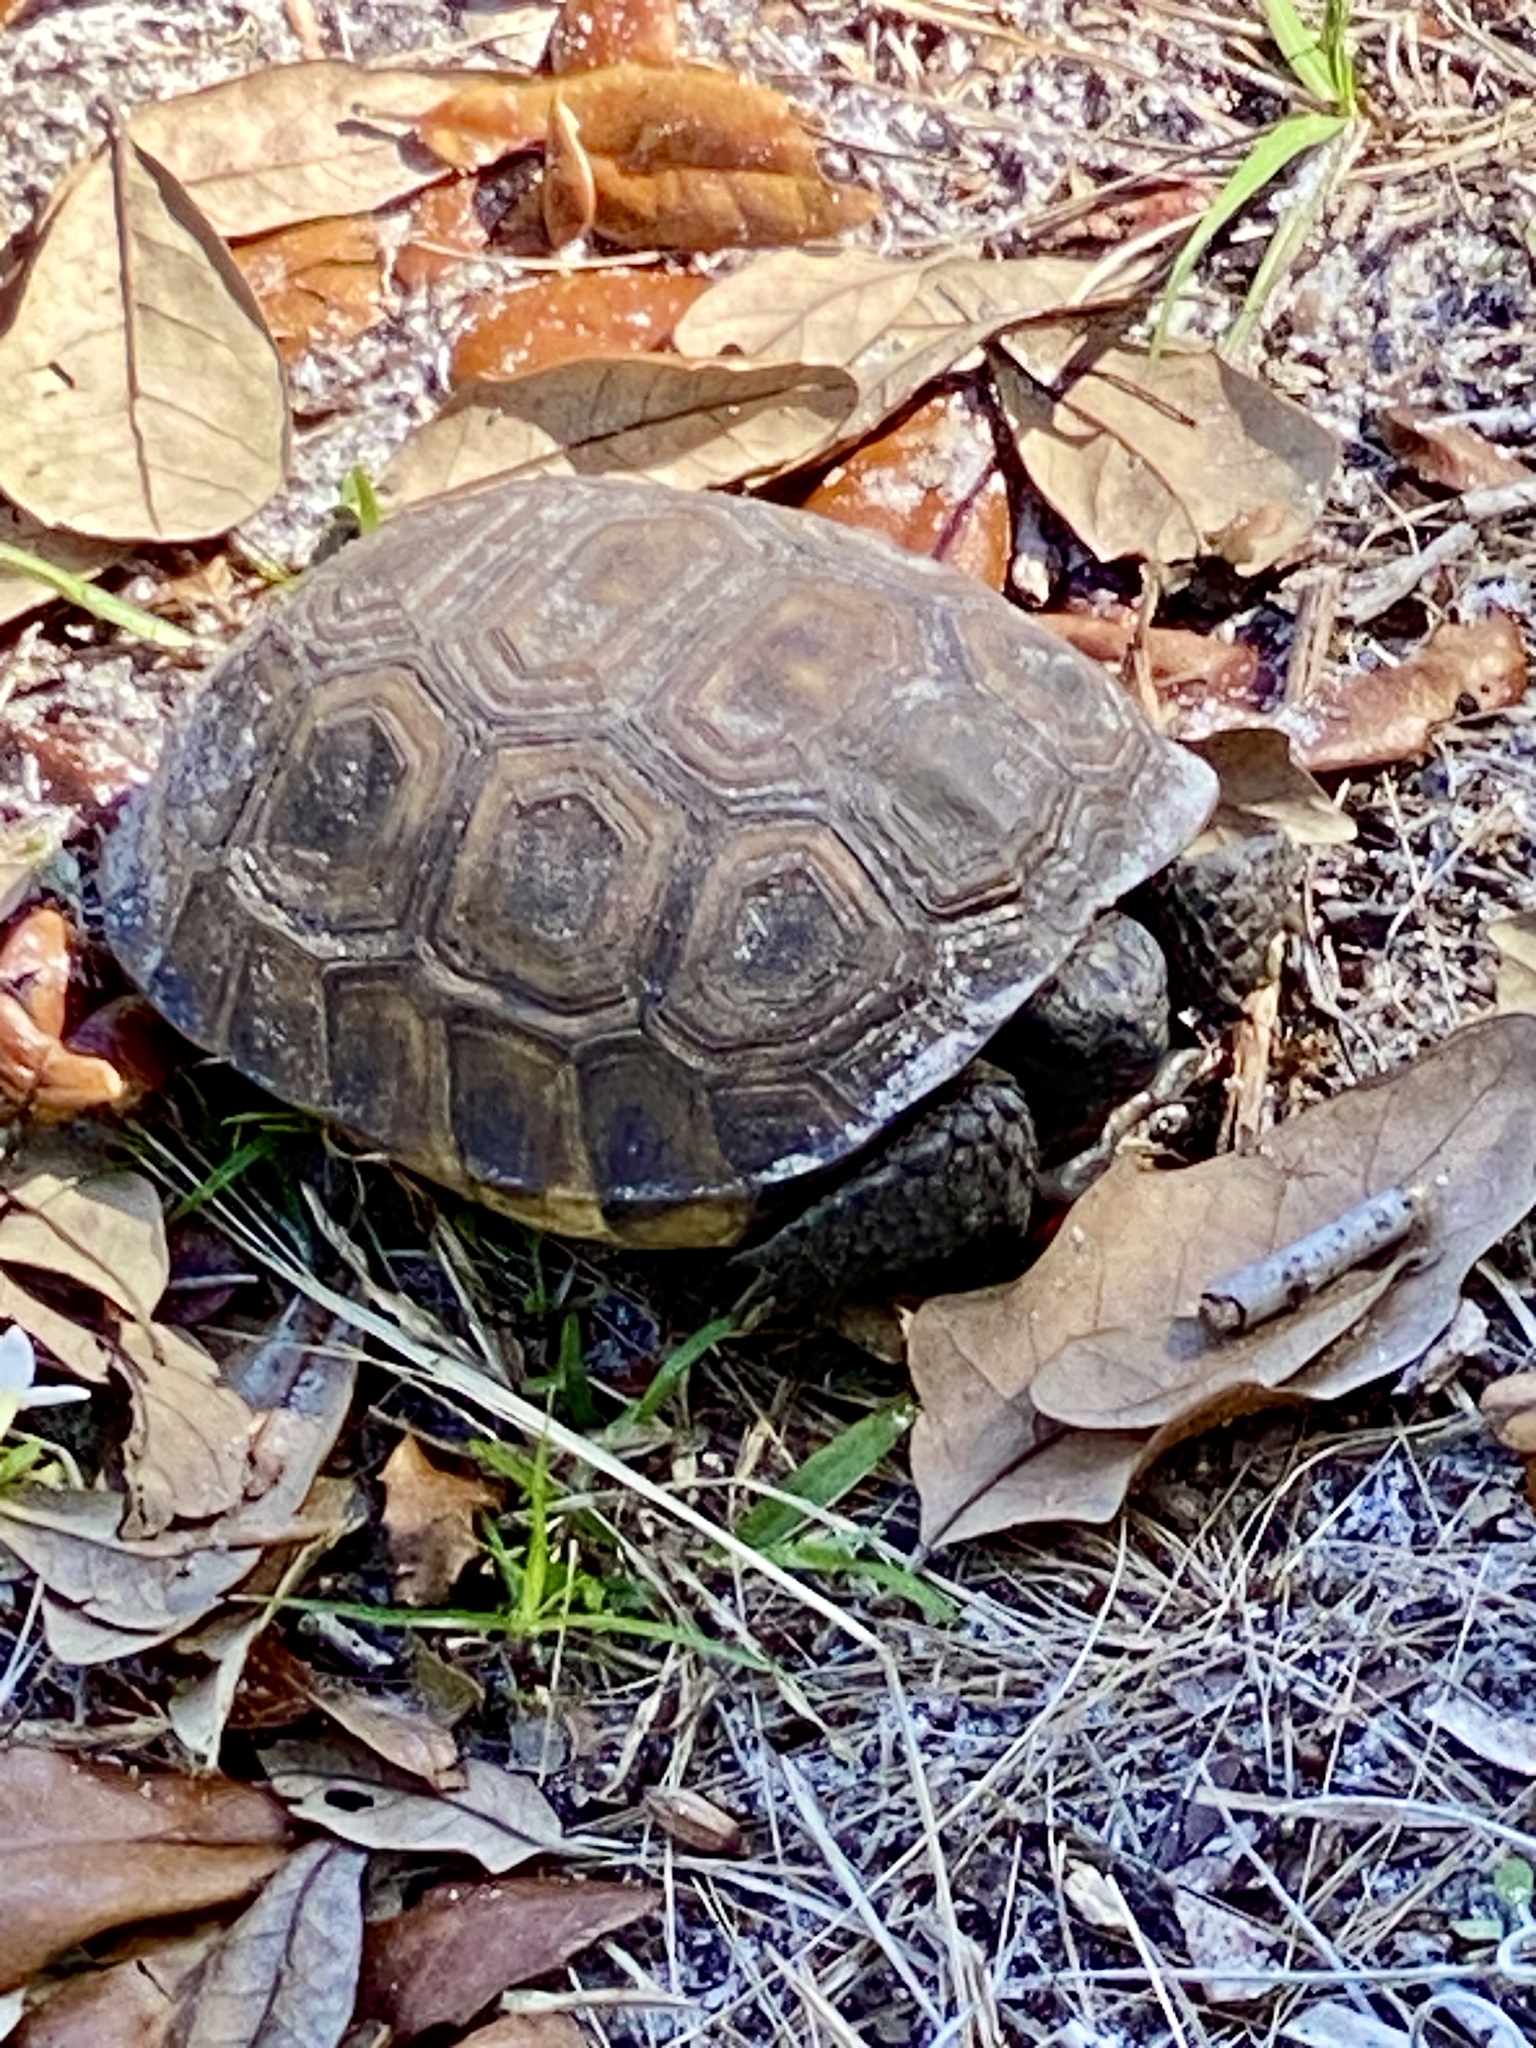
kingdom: Animalia
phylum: Chordata
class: Testudines
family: Testudinidae
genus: Gopherus
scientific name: Gopherus polyphemus
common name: Florida gopher tortoise
